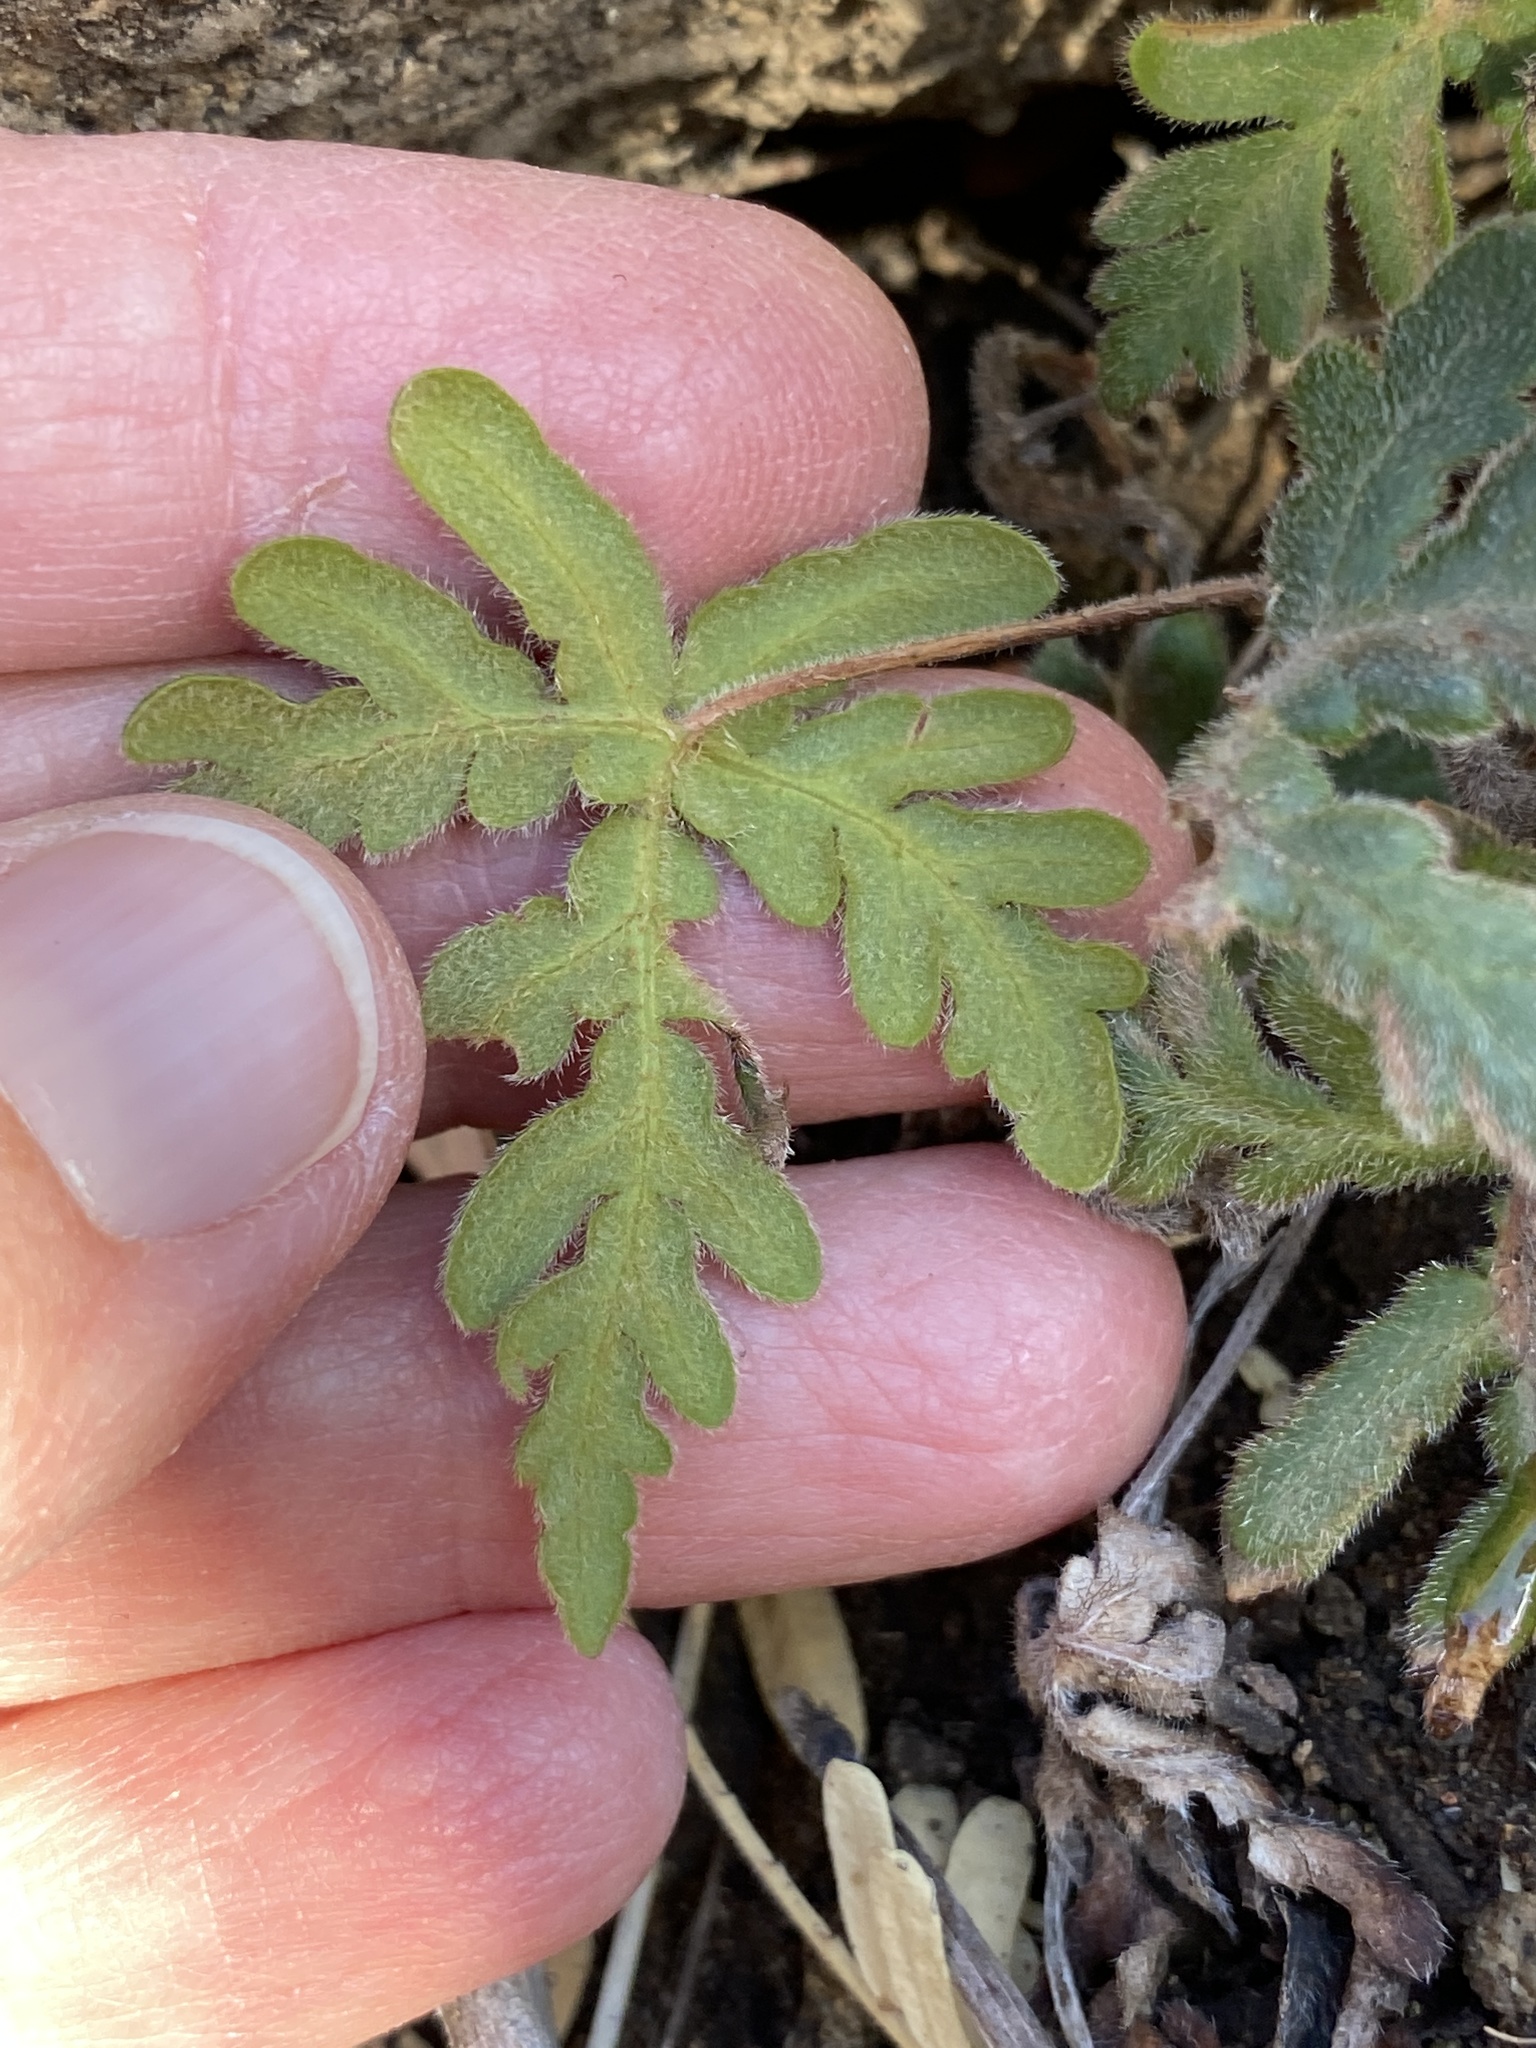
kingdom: Plantae
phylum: Tracheophyta
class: Polypodiopsida
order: Polypodiales
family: Pteridaceae
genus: Bommeria
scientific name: Bommeria hispida
